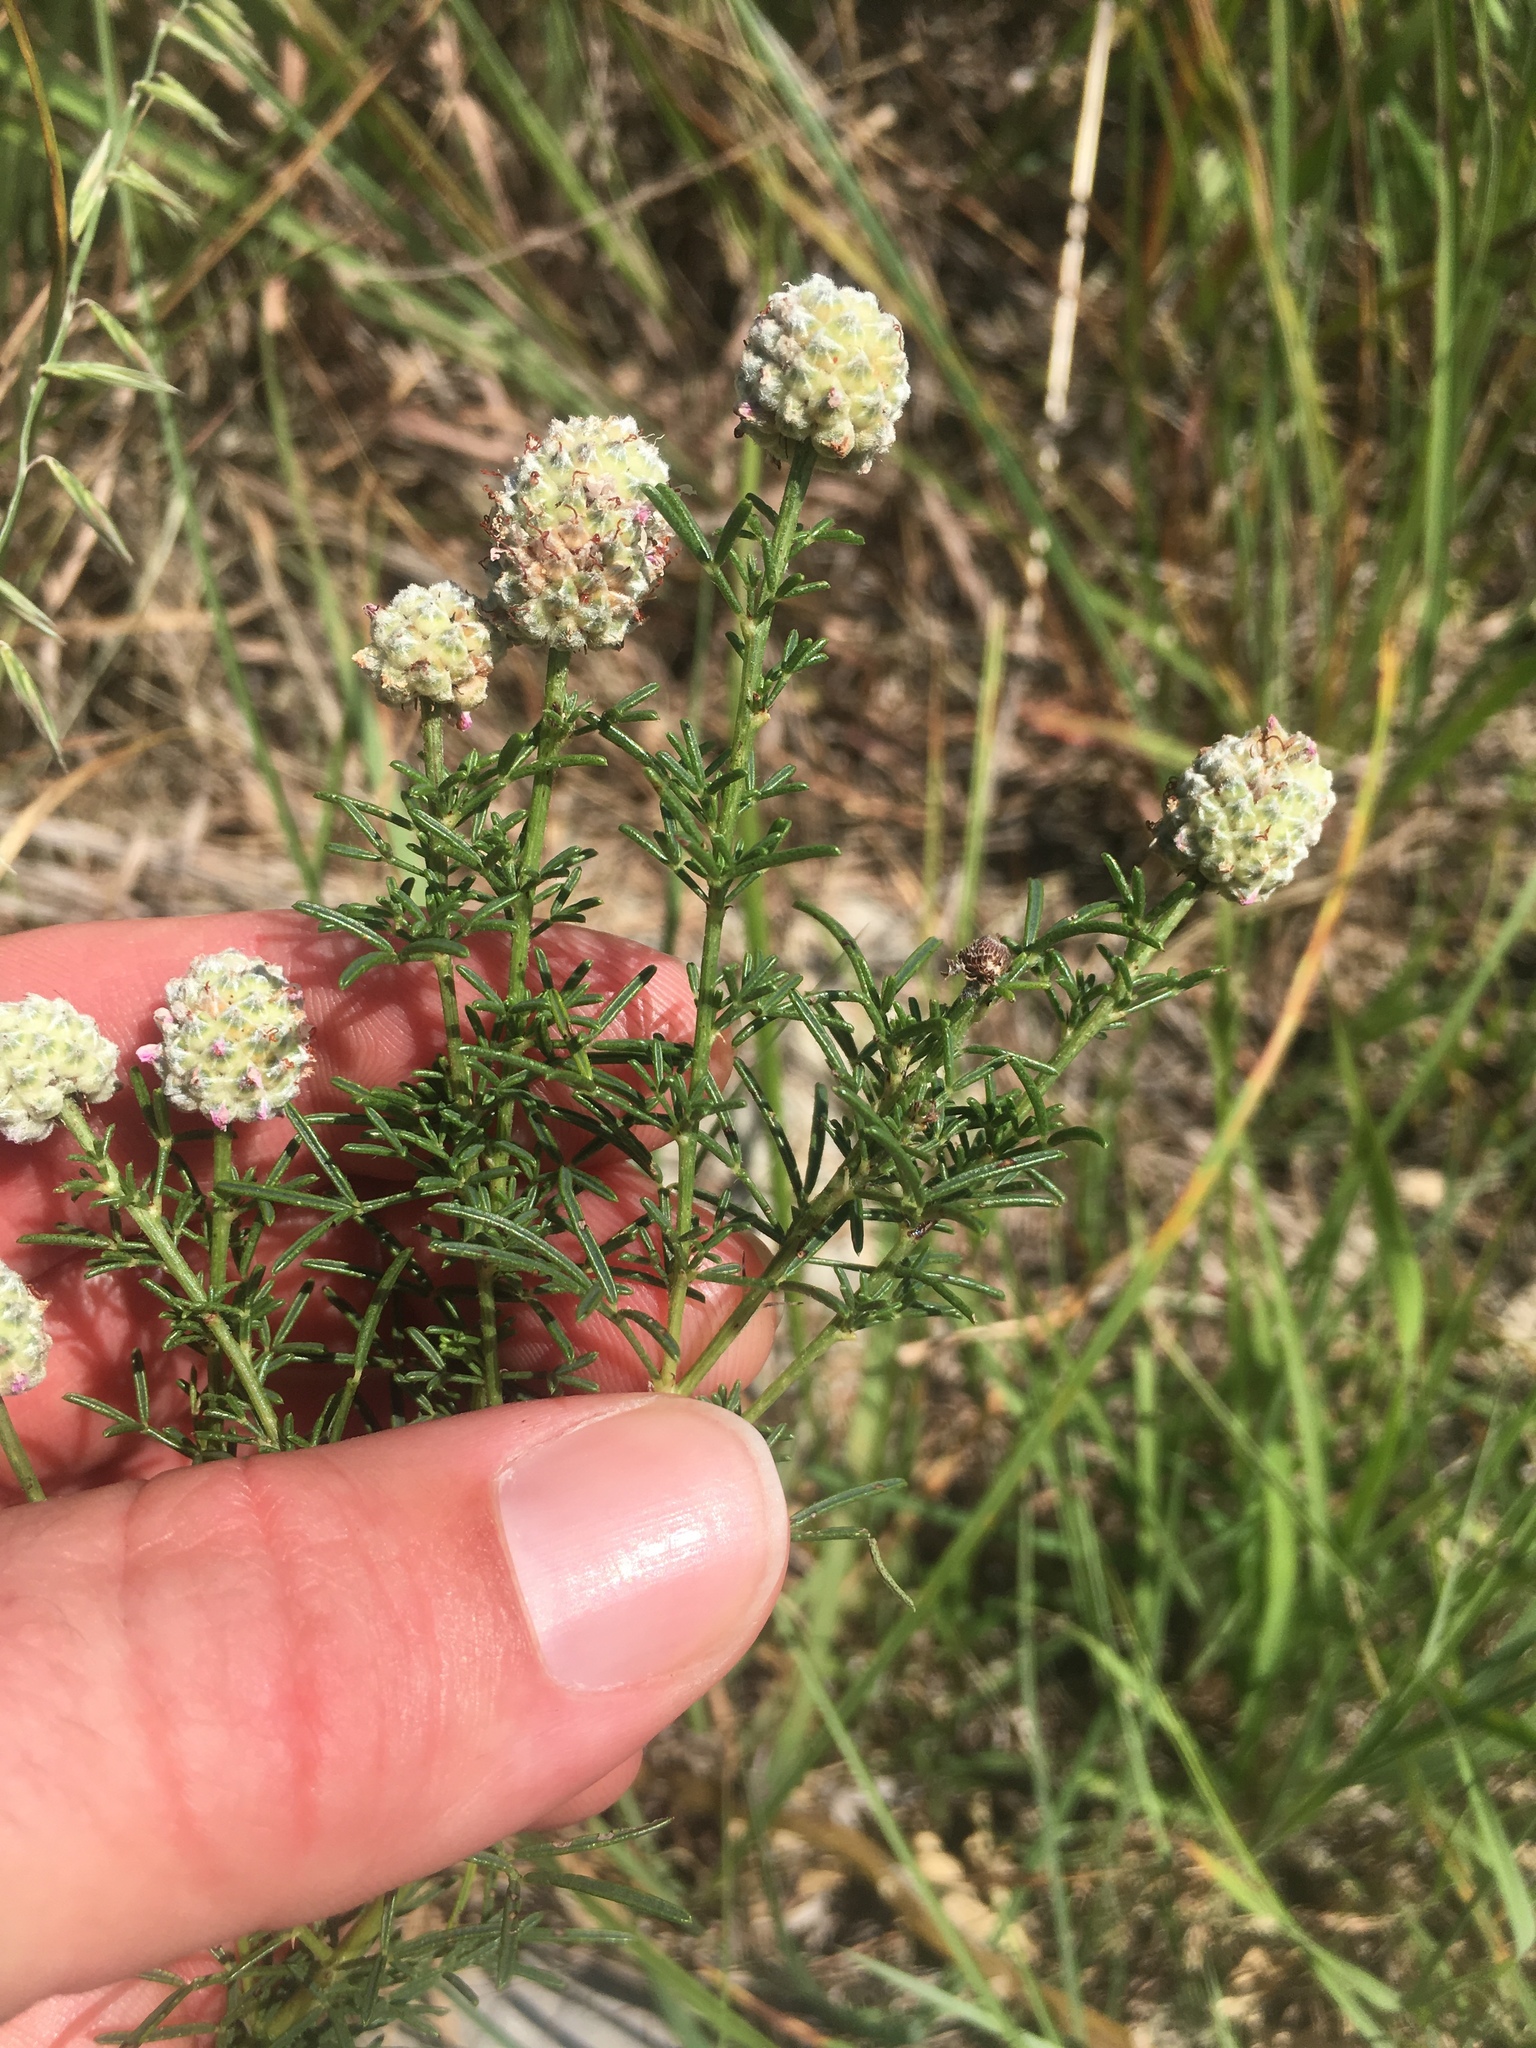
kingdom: Plantae
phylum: Tracheophyta
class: Magnoliopsida
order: Fabales
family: Fabaceae
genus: Dalea
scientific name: Dalea purpurea
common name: Purple prairie-clover
